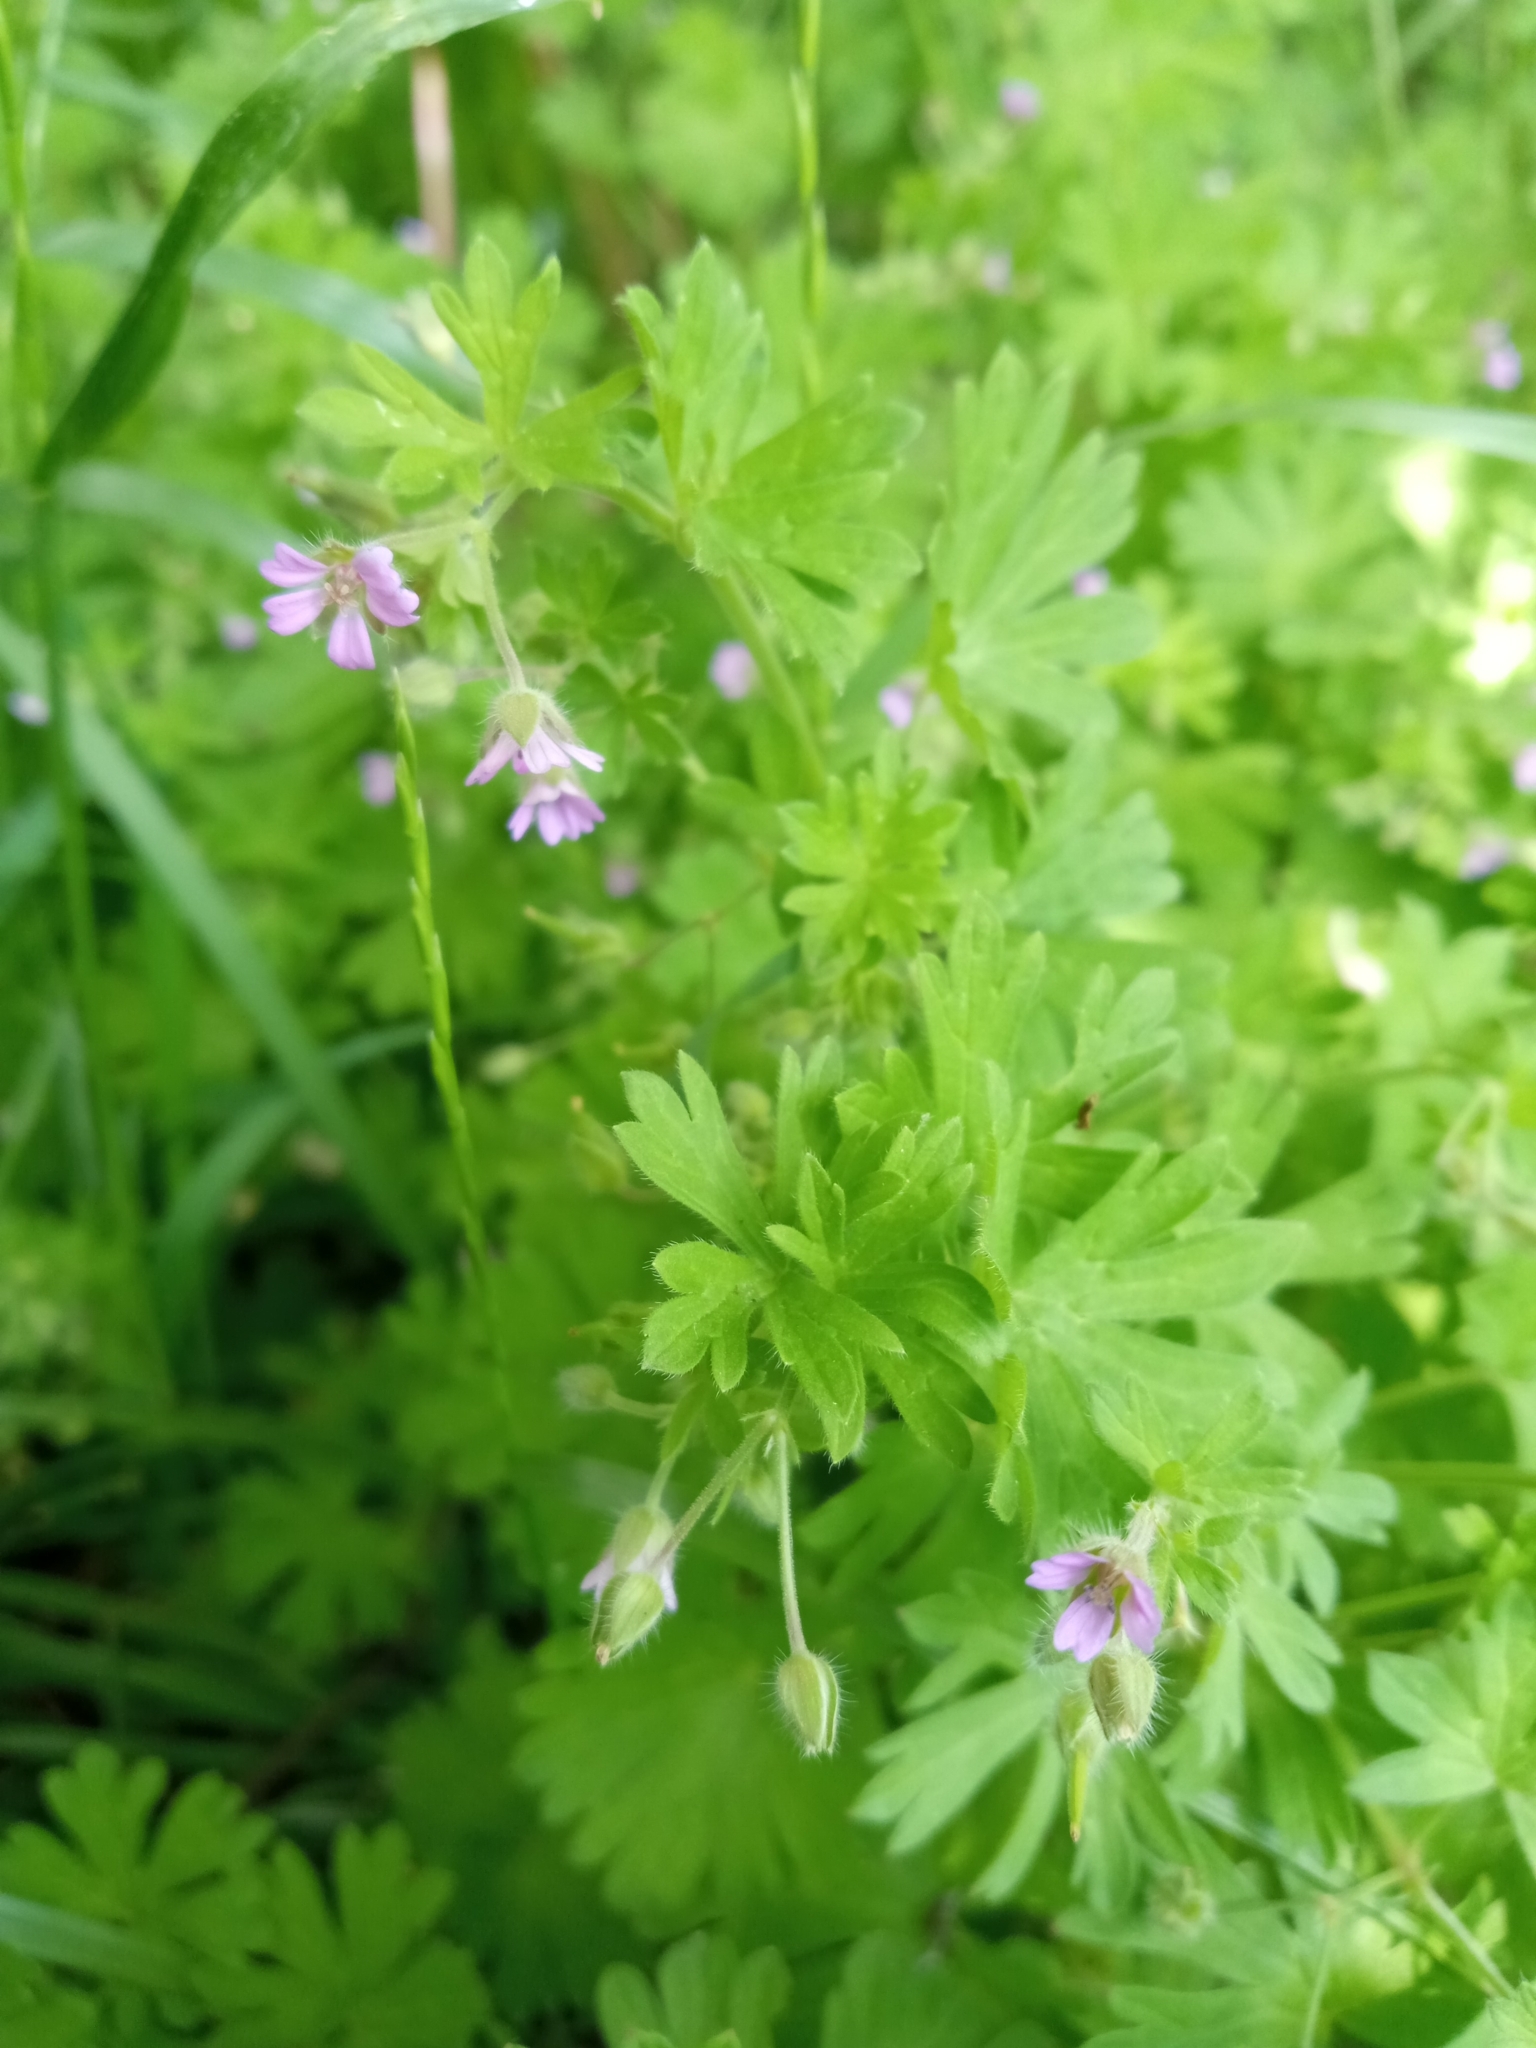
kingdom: Plantae
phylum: Tracheophyta
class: Magnoliopsida
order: Geraniales
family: Geraniaceae
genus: Geranium
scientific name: Geranium pusillum
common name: Small geranium
